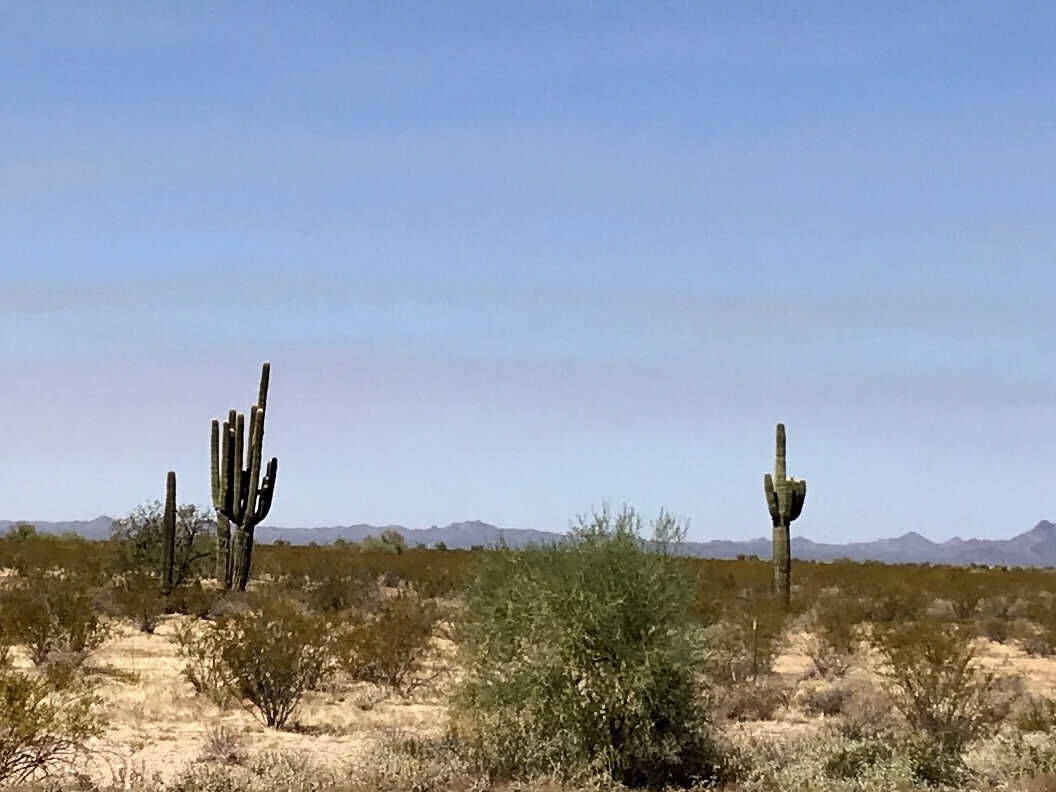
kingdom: Plantae
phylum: Tracheophyta
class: Magnoliopsida
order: Caryophyllales
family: Cactaceae
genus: Carnegiea
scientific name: Carnegiea gigantea
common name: Saguaro
